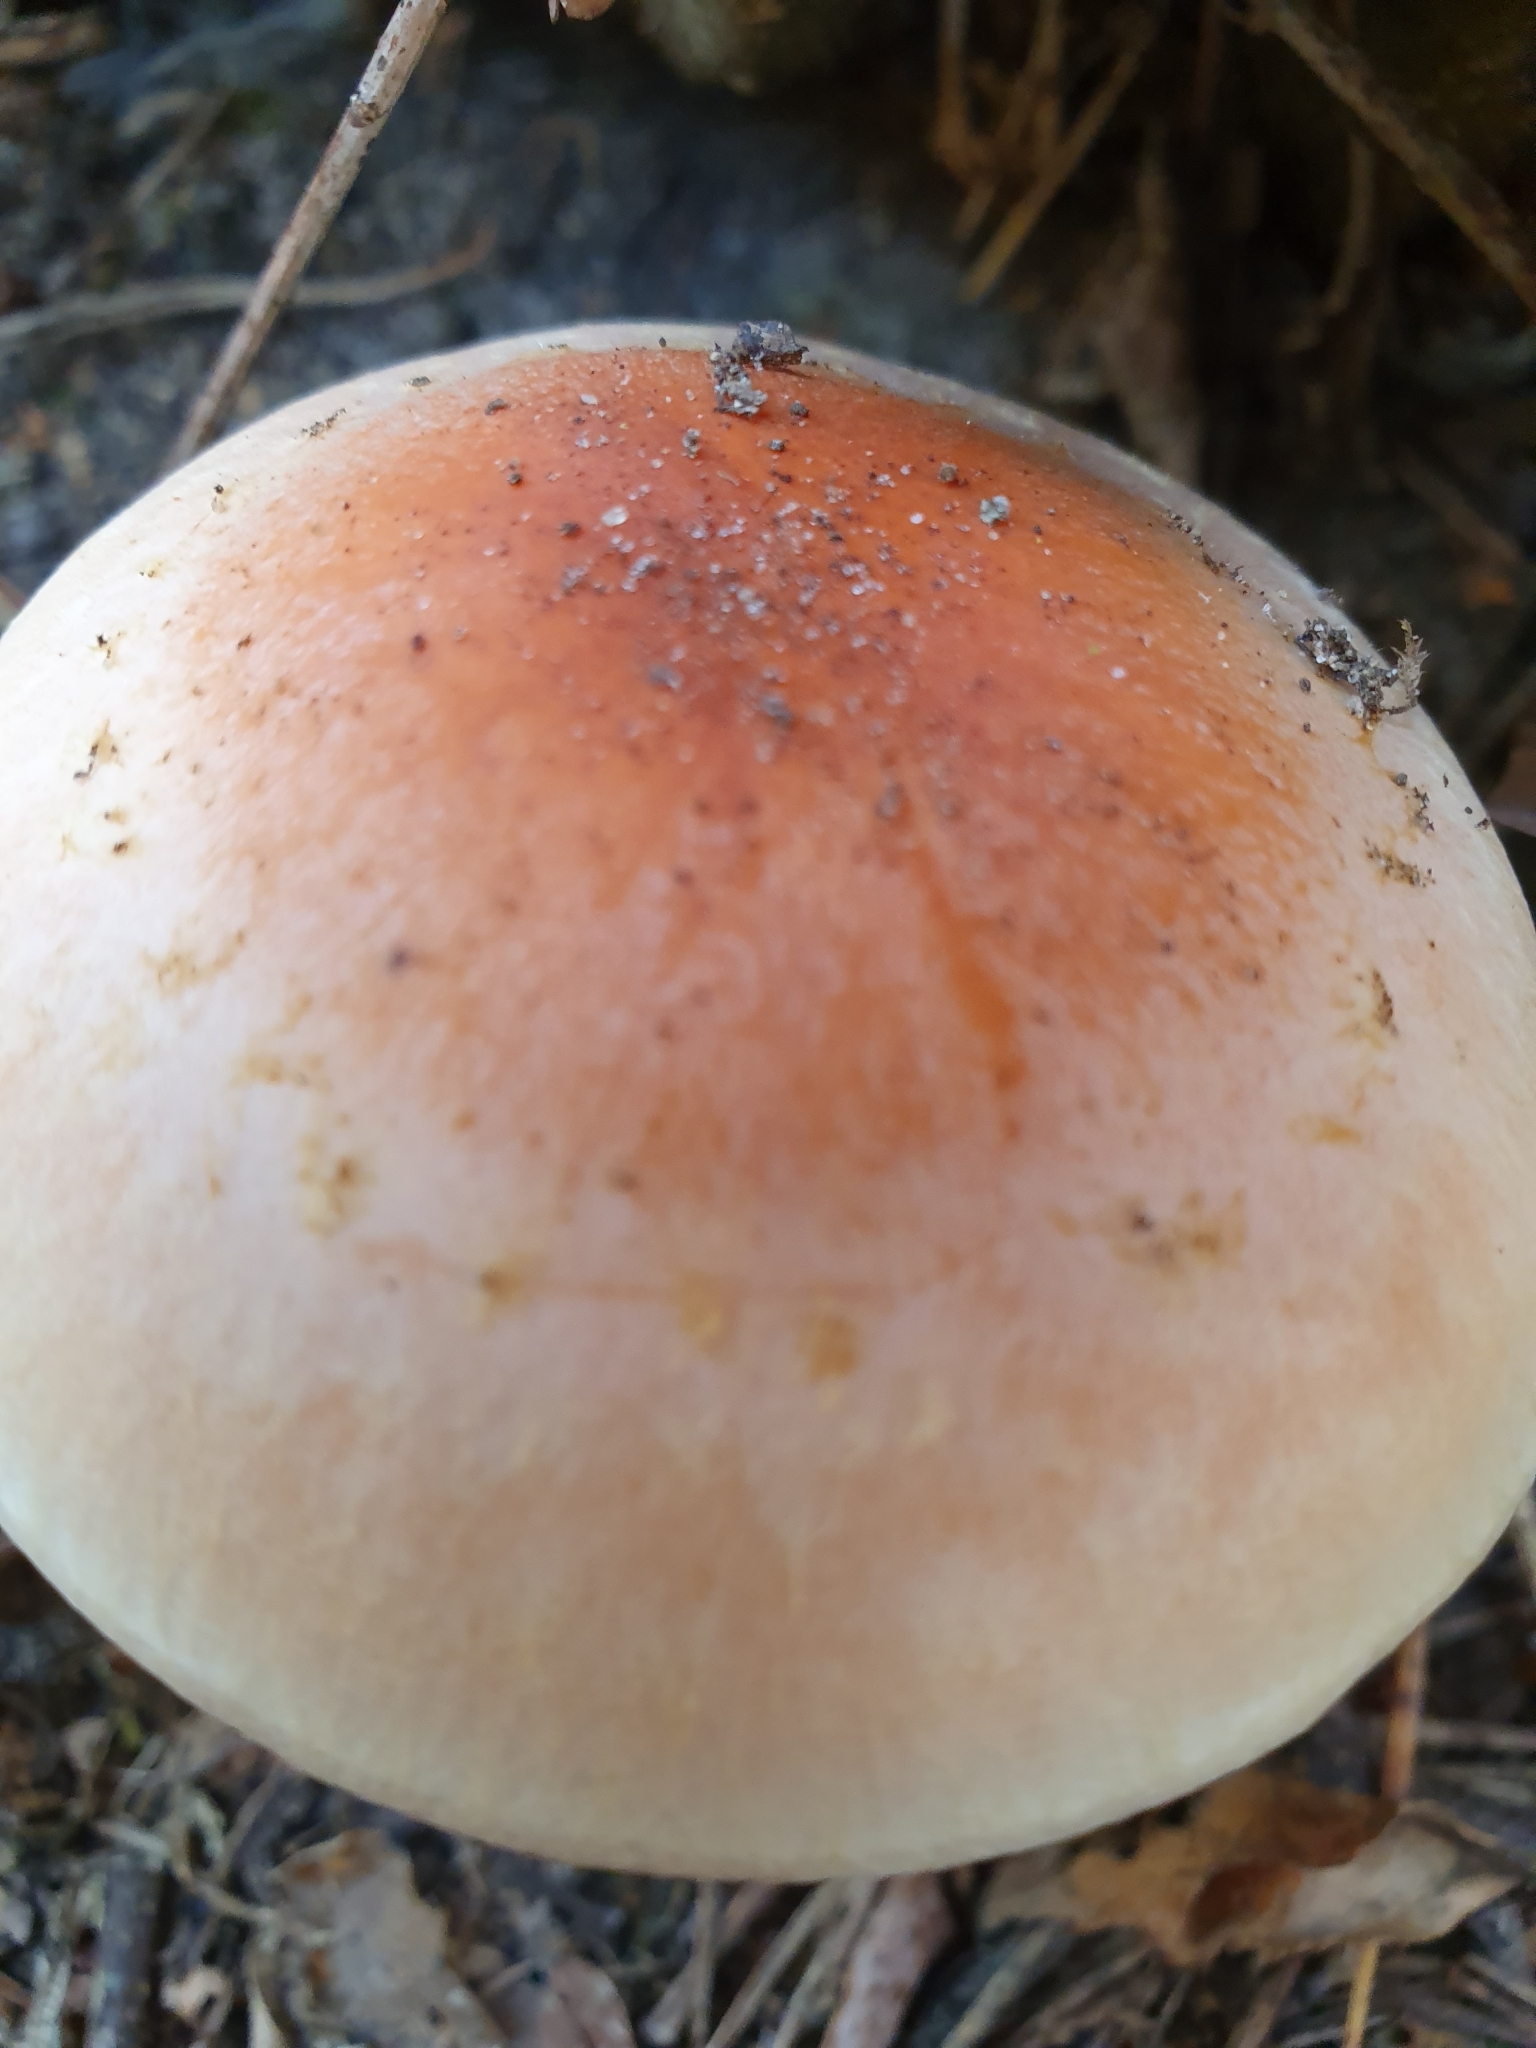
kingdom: Fungi
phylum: Basidiomycota
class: Agaricomycetes
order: Agaricales
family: Strophariaceae
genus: Hypholoma
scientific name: Hypholoma lateritium
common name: Brick caps
